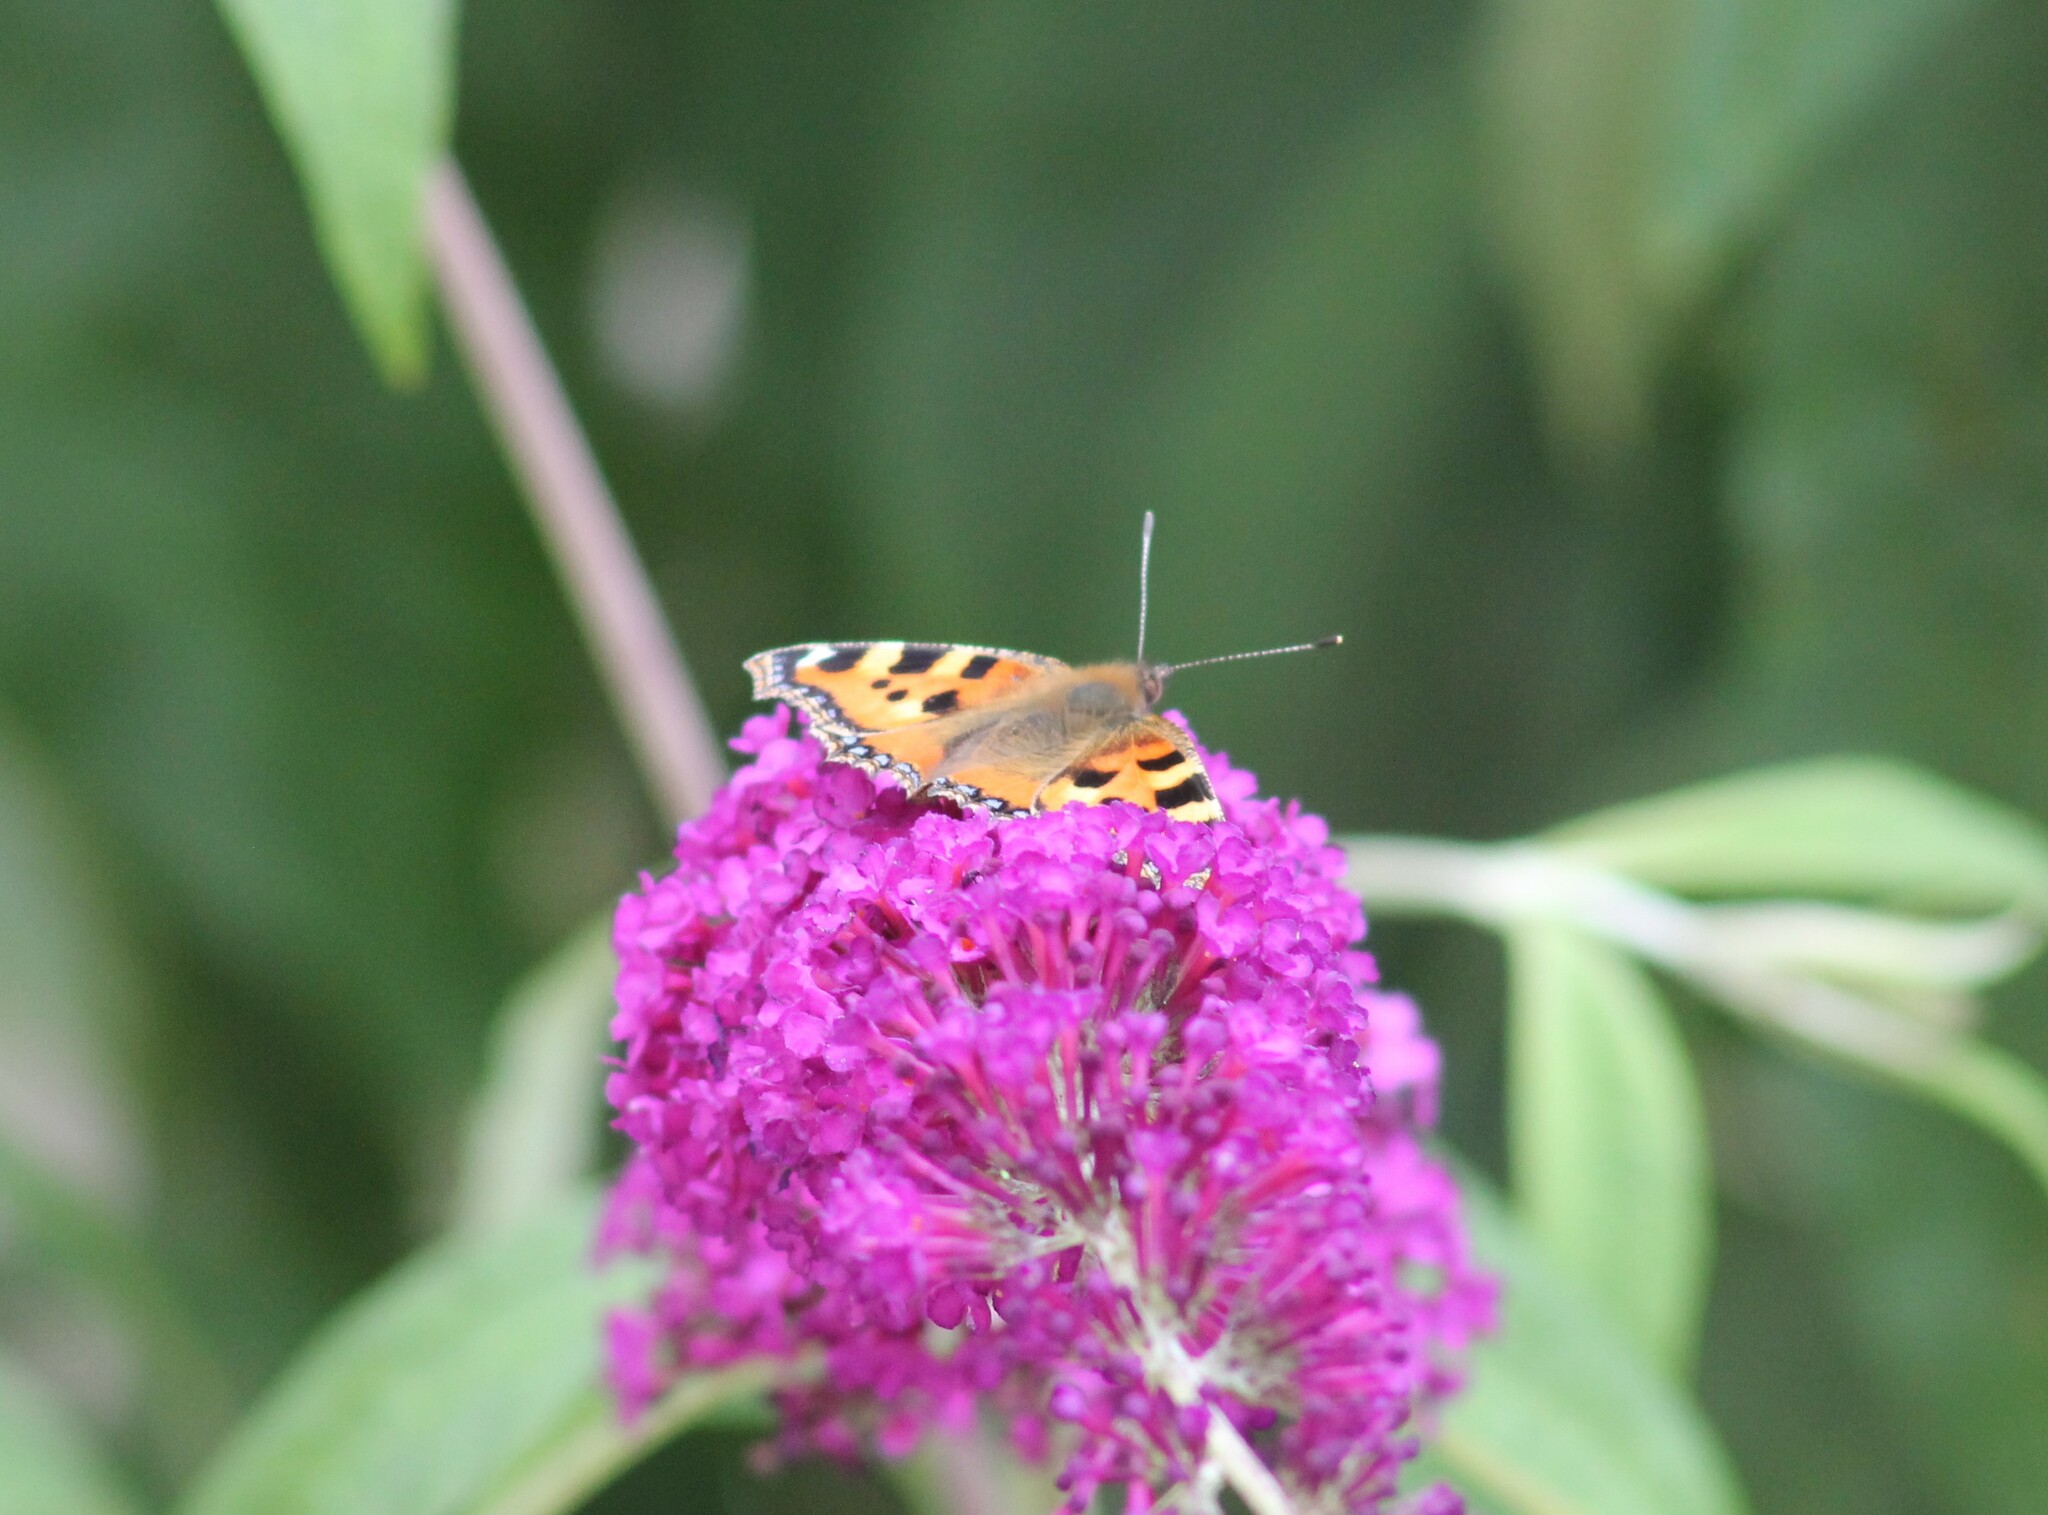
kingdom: Animalia
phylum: Arthropoda
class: Insecta
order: Lepidoptera
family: Nymphalidae
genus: Aglais
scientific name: Aglais urticae
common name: Small tortoiseshell
